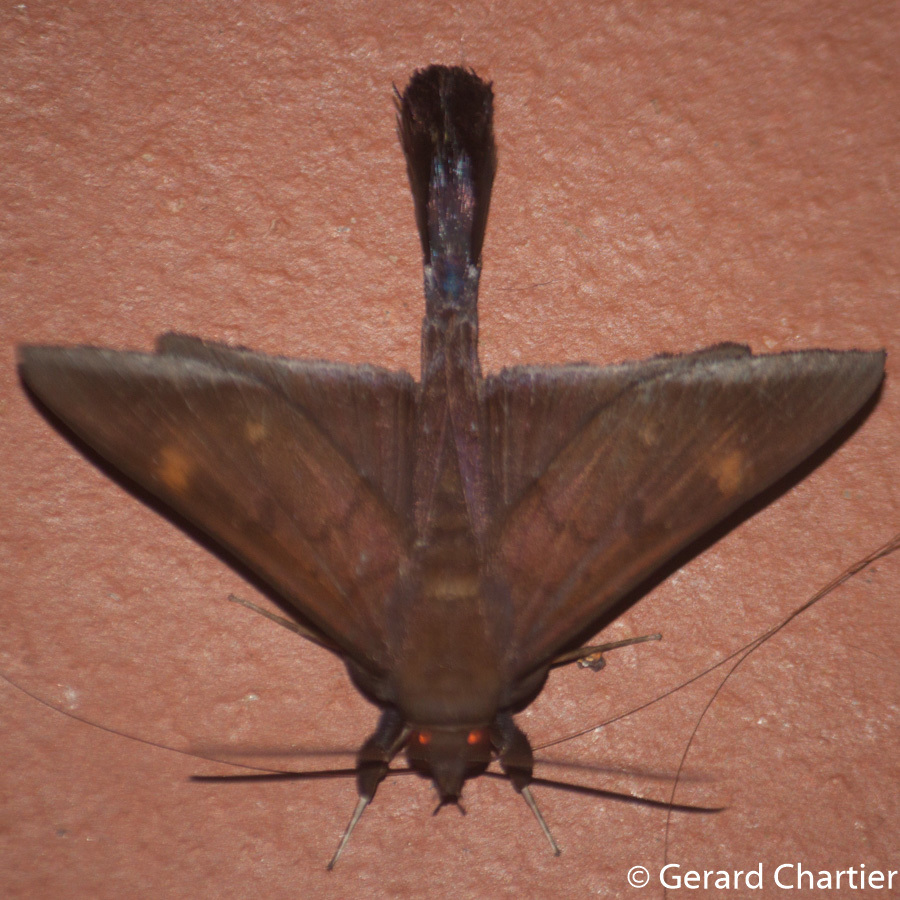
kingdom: Animalia
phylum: Arthropoda
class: Insecta
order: Lepidoptera
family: Erebidae
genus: Platyja
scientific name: Platyja umbrina
